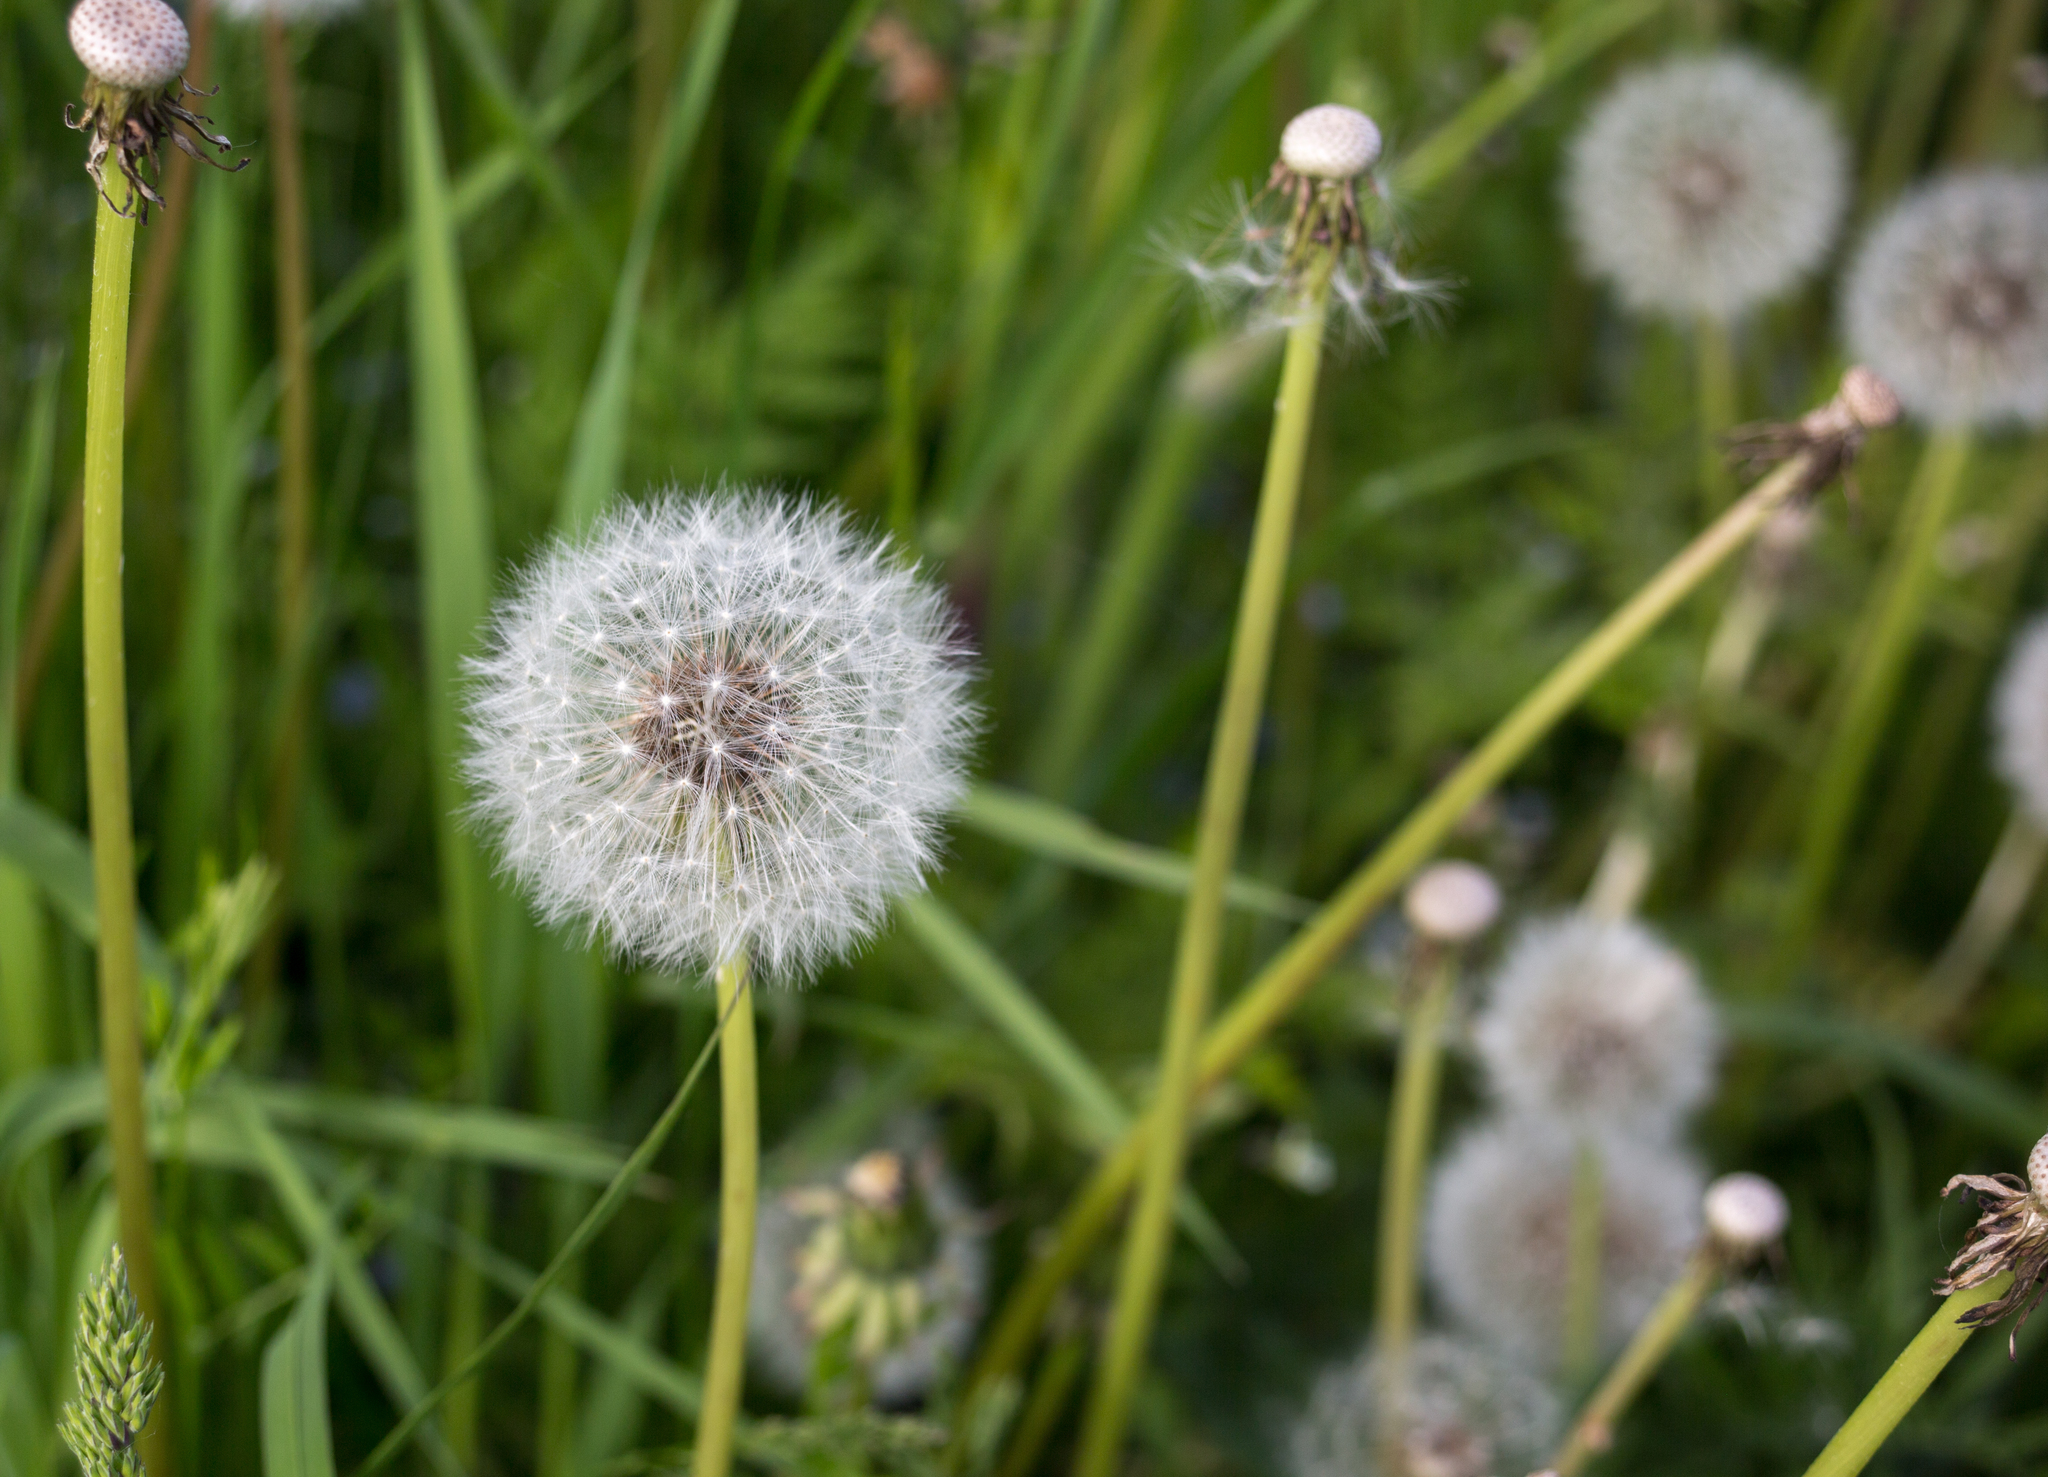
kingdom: Plantae
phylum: Tracheophyta
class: Magnoliopsida
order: Asterales
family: Asteraceae
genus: Taraxacum
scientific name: Taraxacum officinale
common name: Common dandelion
